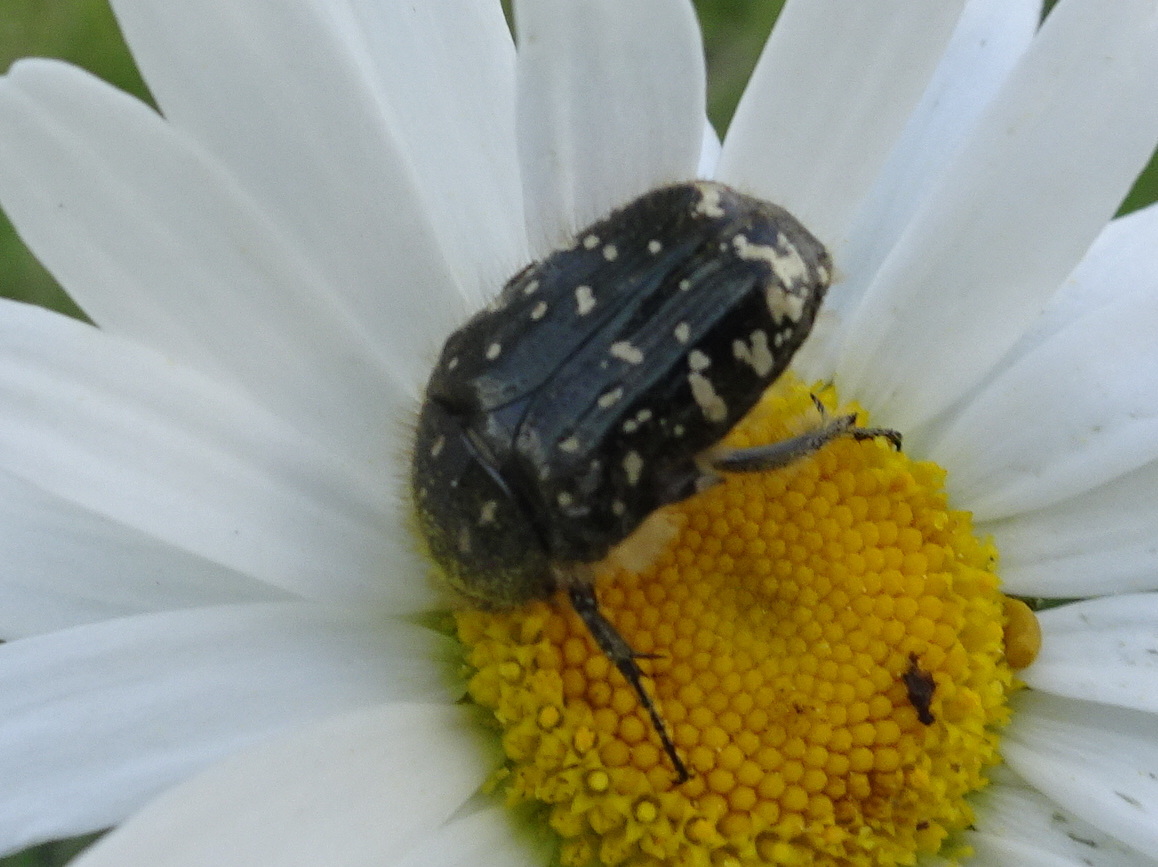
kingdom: Animalia
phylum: Arthropoda
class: Insecta
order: Coleoptera
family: Scarabaeidae
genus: Oxythyrea
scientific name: Oxythyrea funesta
